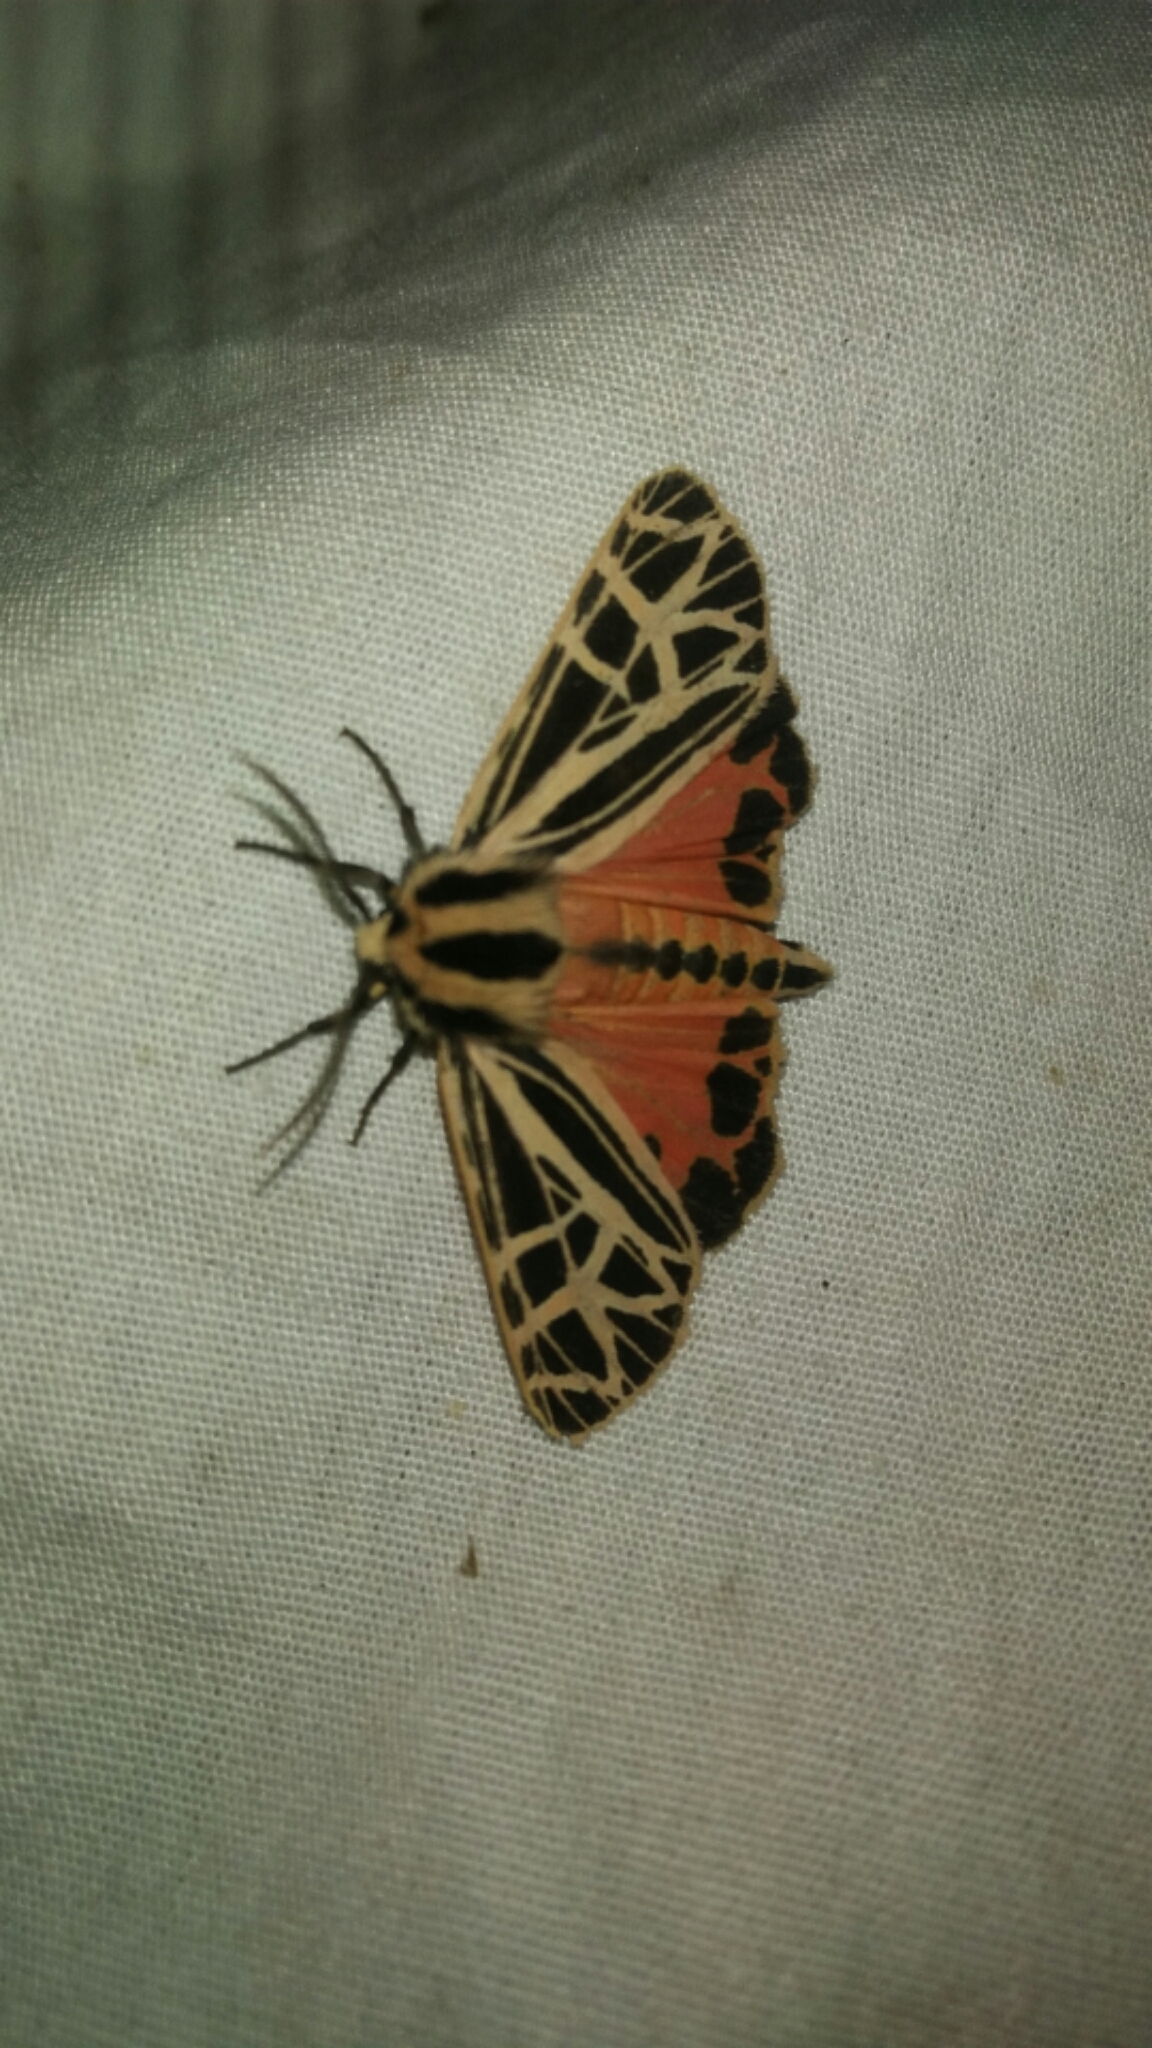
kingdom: Animalia
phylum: Arthropoda
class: Insecta
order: Lepidoptera
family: Erebidae
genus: Grammia
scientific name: Grammia parthenice
